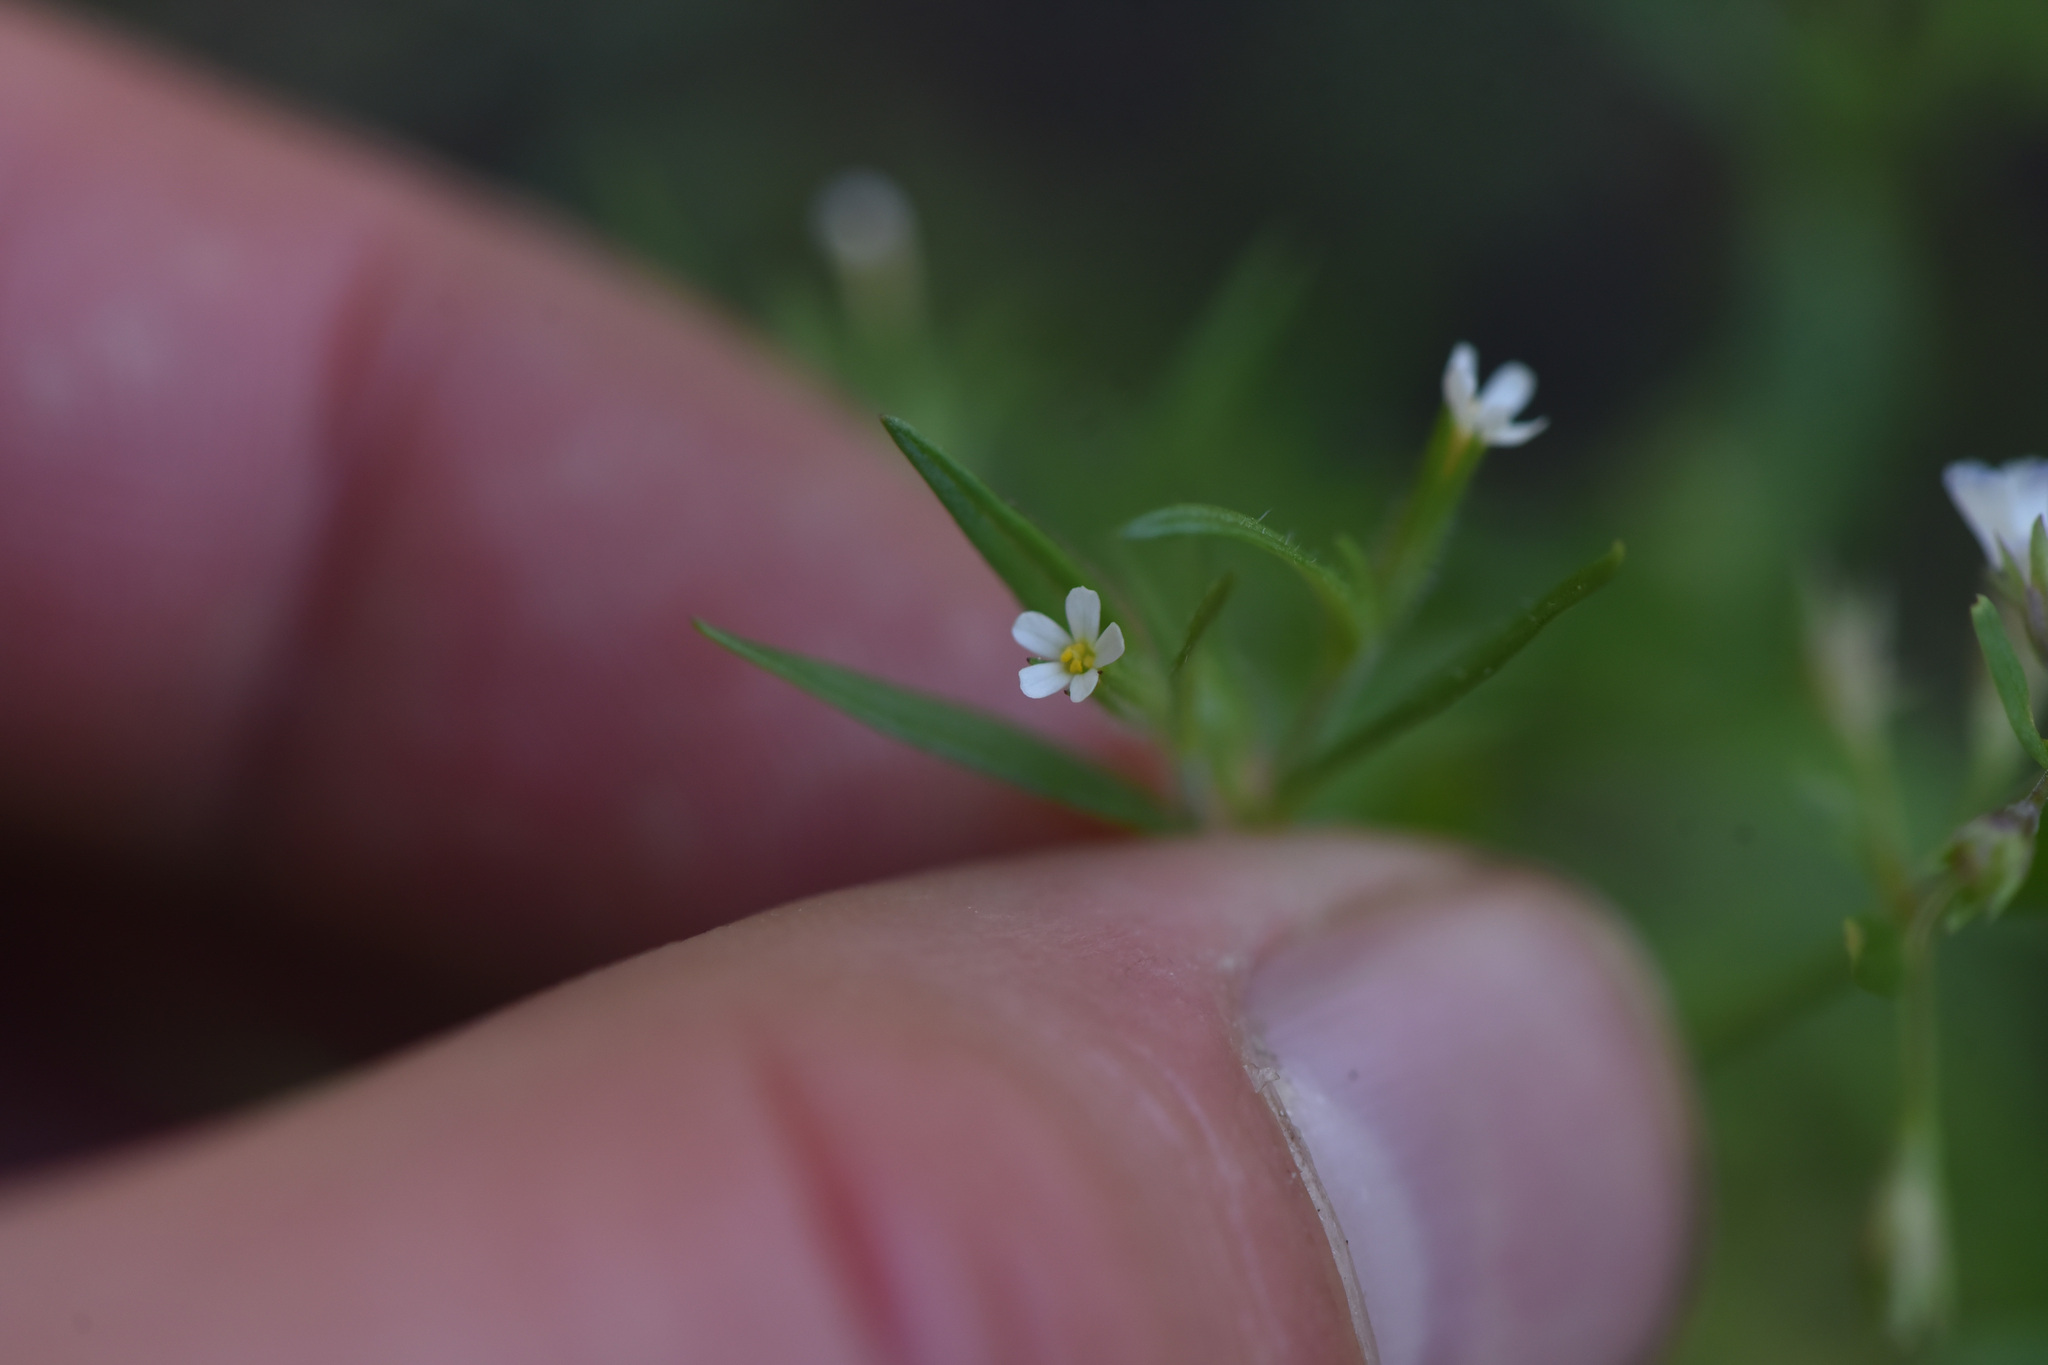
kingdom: Plantae
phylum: Tracheophyta
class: Magnoliopsida
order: Ericales
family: Polemoniaceae
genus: Phlox
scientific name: Phlox gracilis
